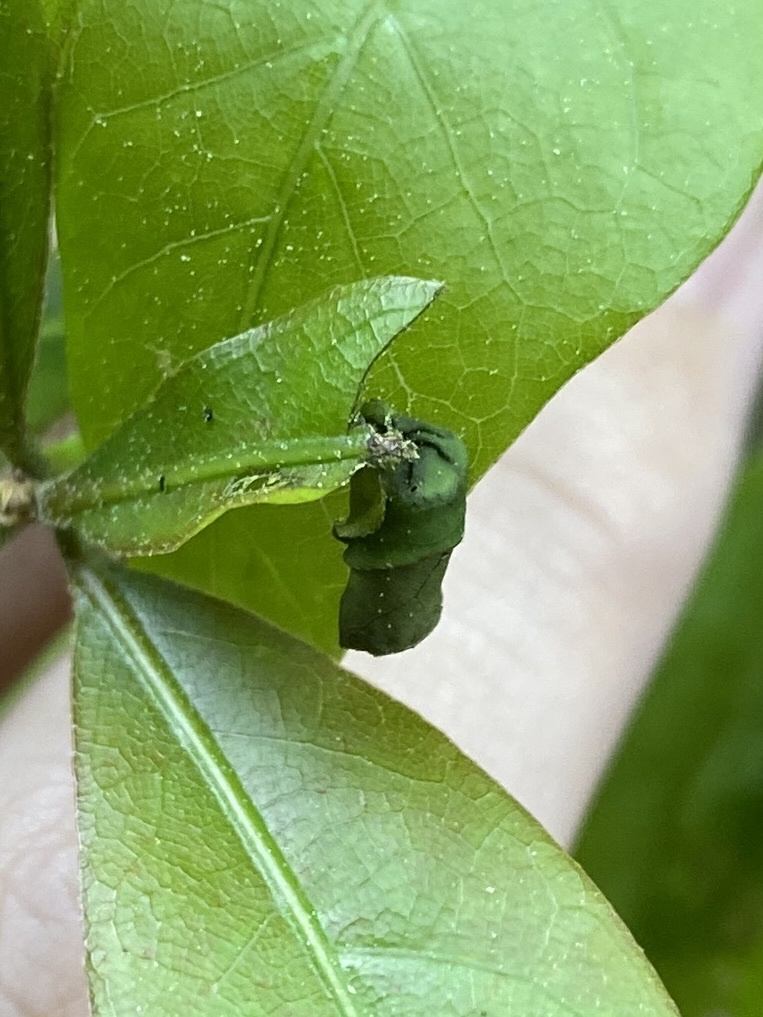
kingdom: Animalia
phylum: Arthropoda
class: Insecta
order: Coleoptera
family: Attelabidae
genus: Homoeolabus
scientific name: Homoeolabus analis
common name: Oak leaf rolling weevil
